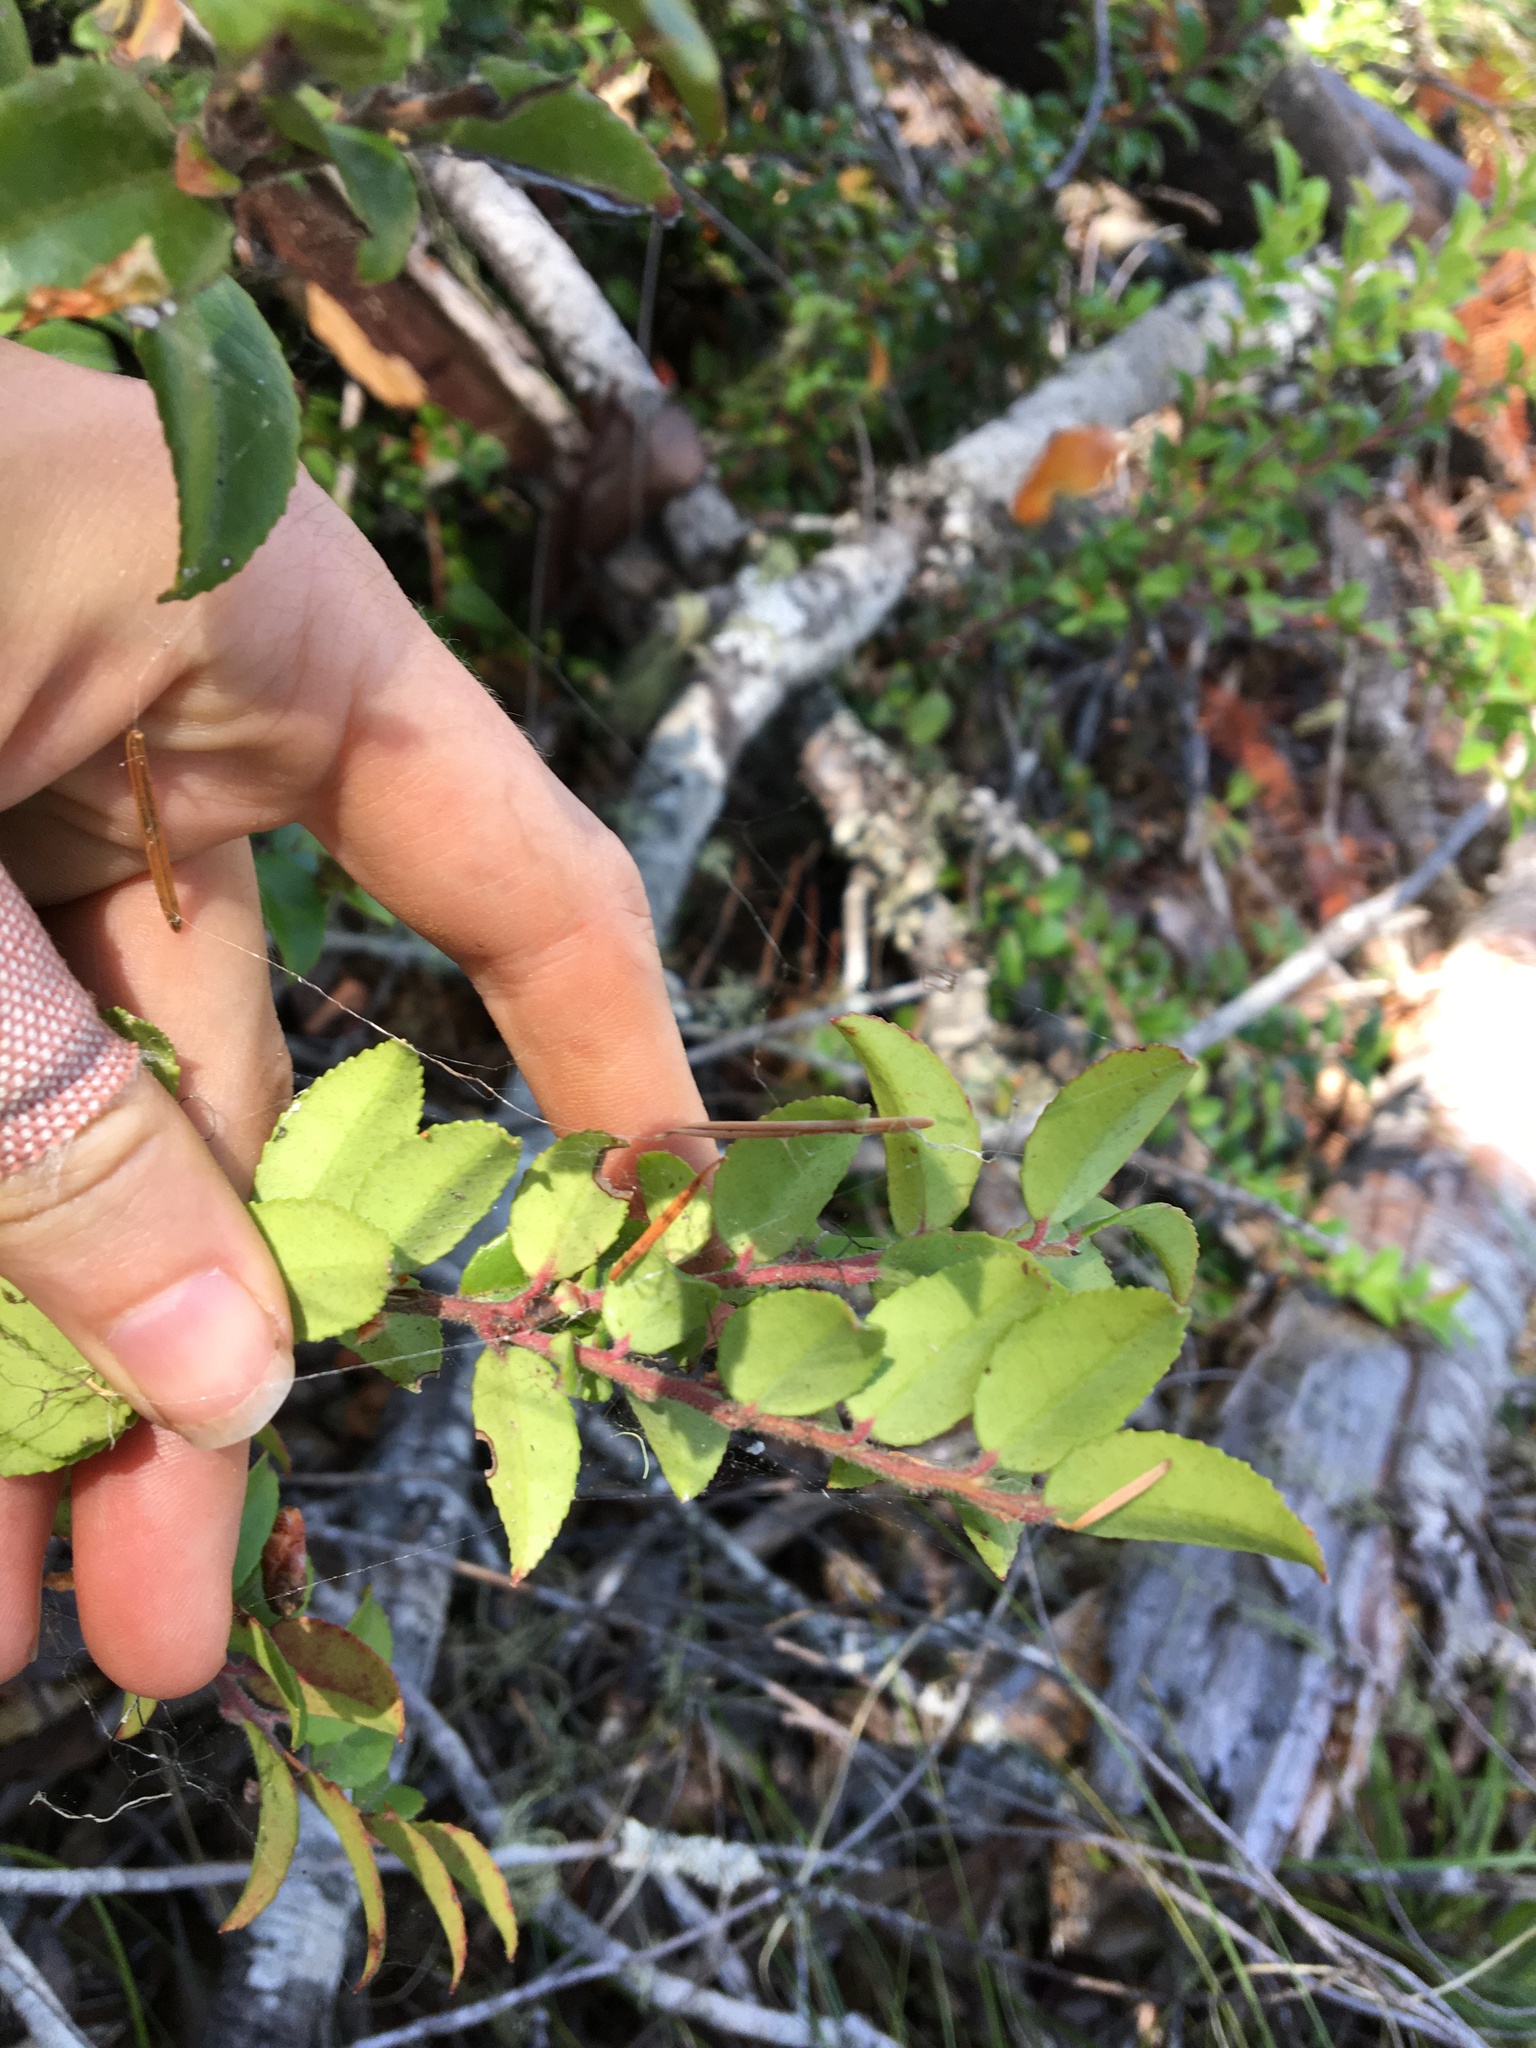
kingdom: Plantae
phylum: Tracheophyta
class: Magnoliopsida
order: Ericales
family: Ericaceae
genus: Vaccinium
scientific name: Vaccinium ovatum
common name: California-huckleberry
